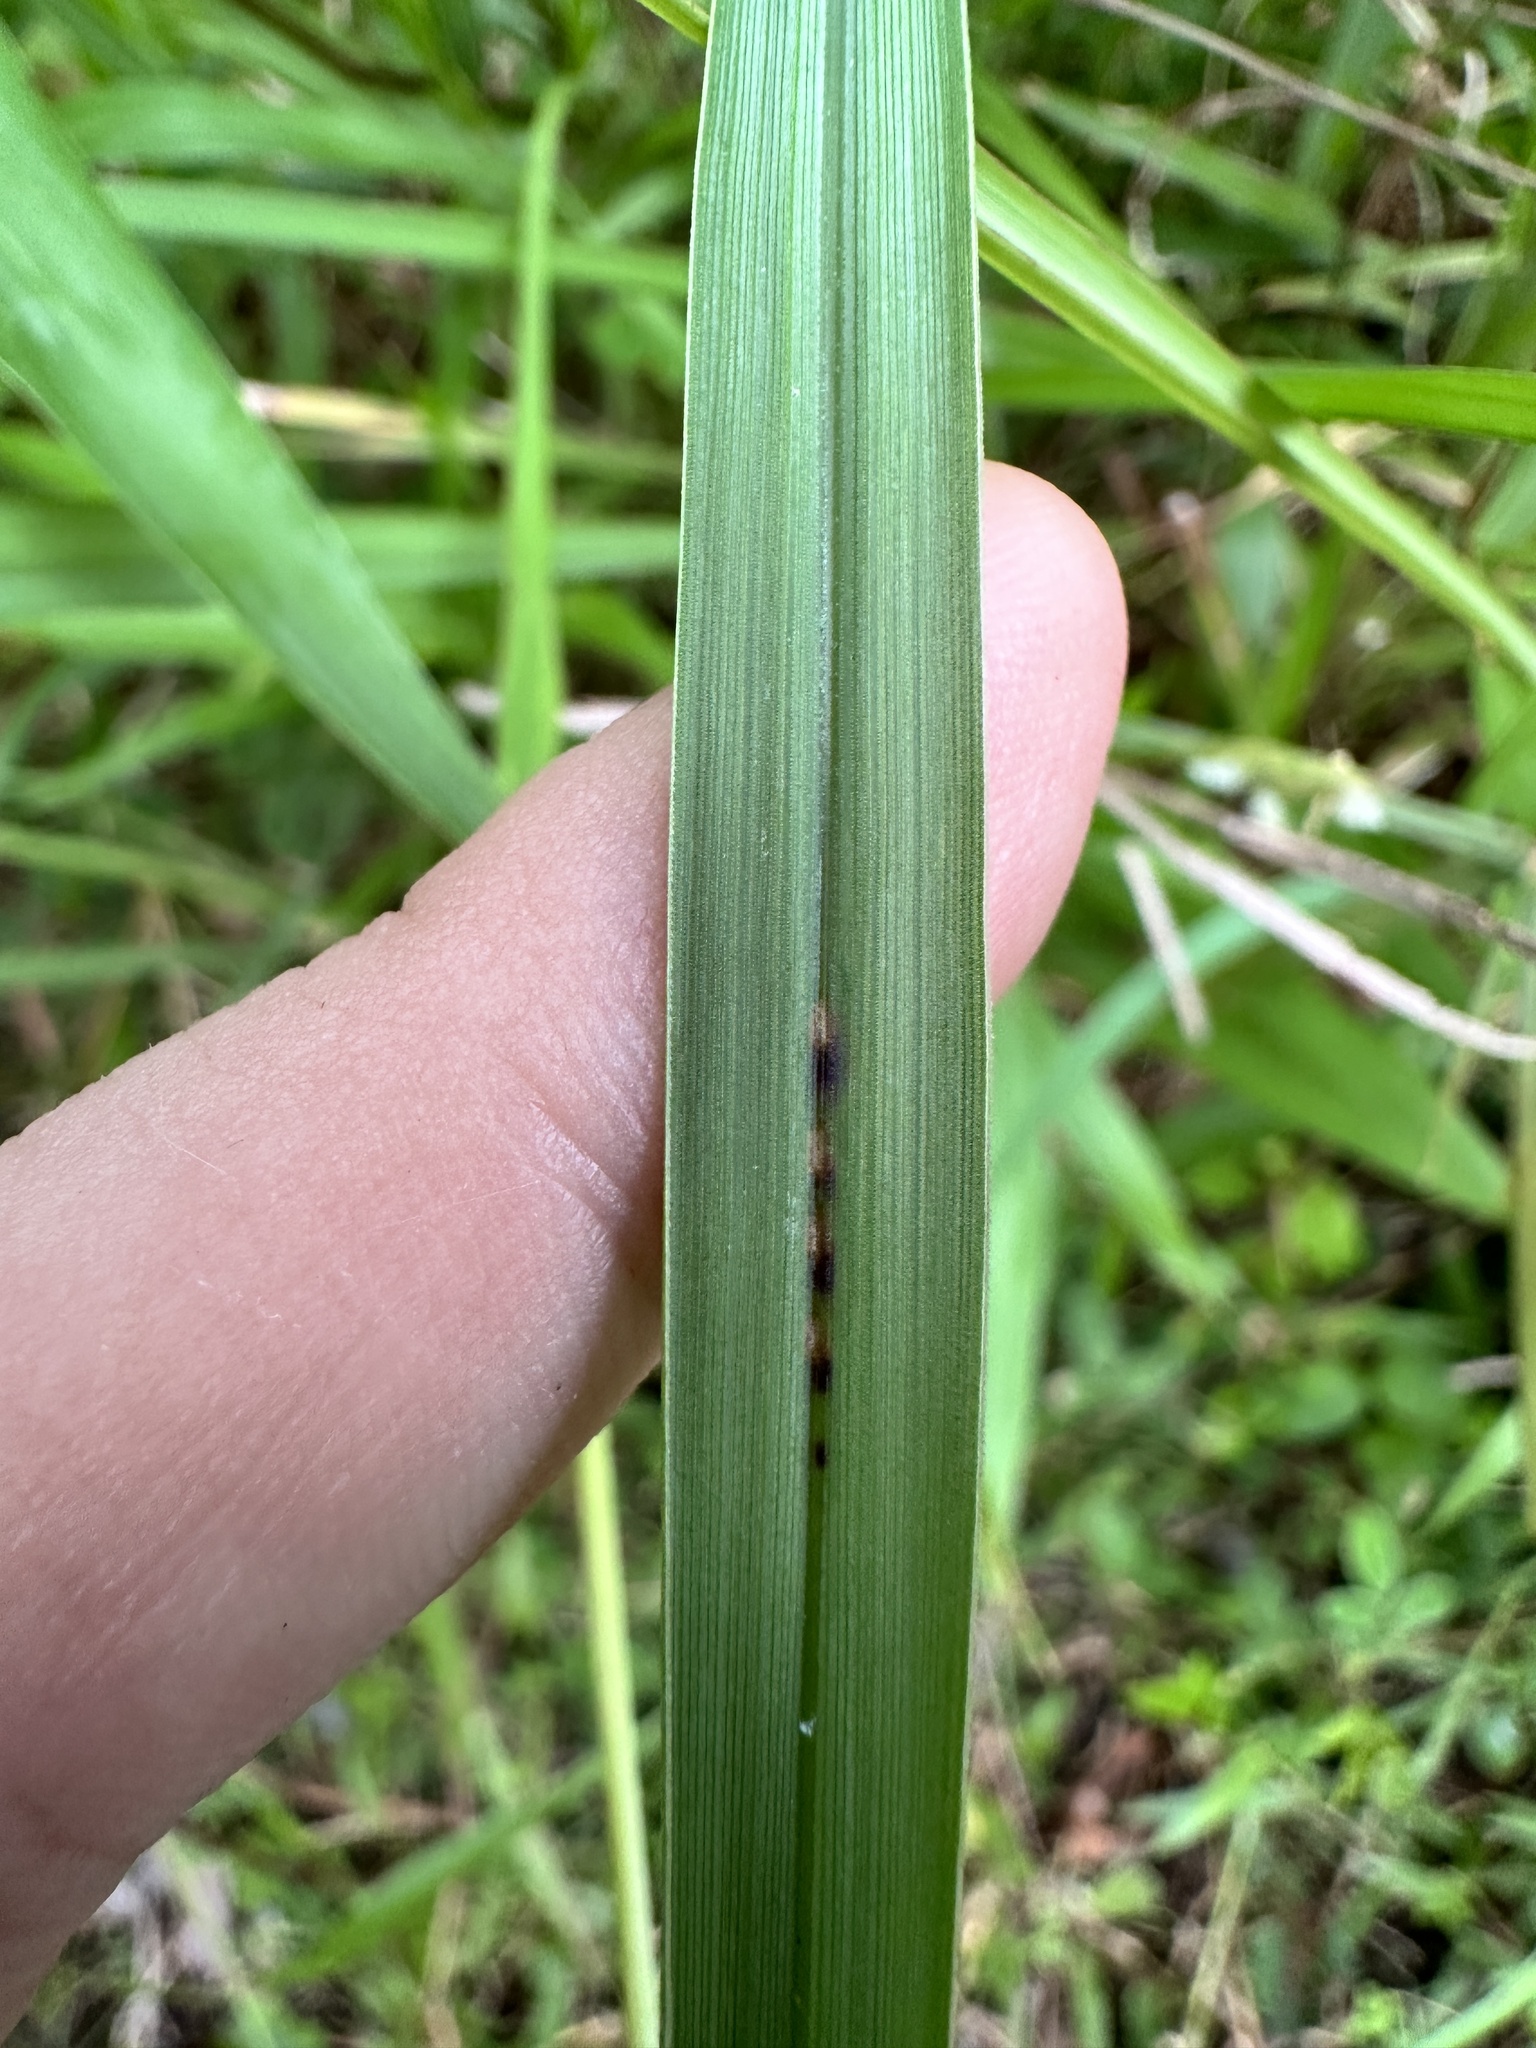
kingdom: Plantae
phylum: Tracheophyta
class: Liliopsida
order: Poales
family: Poaceae
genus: Paspalum
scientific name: Paspalum sumatrense
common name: Long-leaved paspalum
